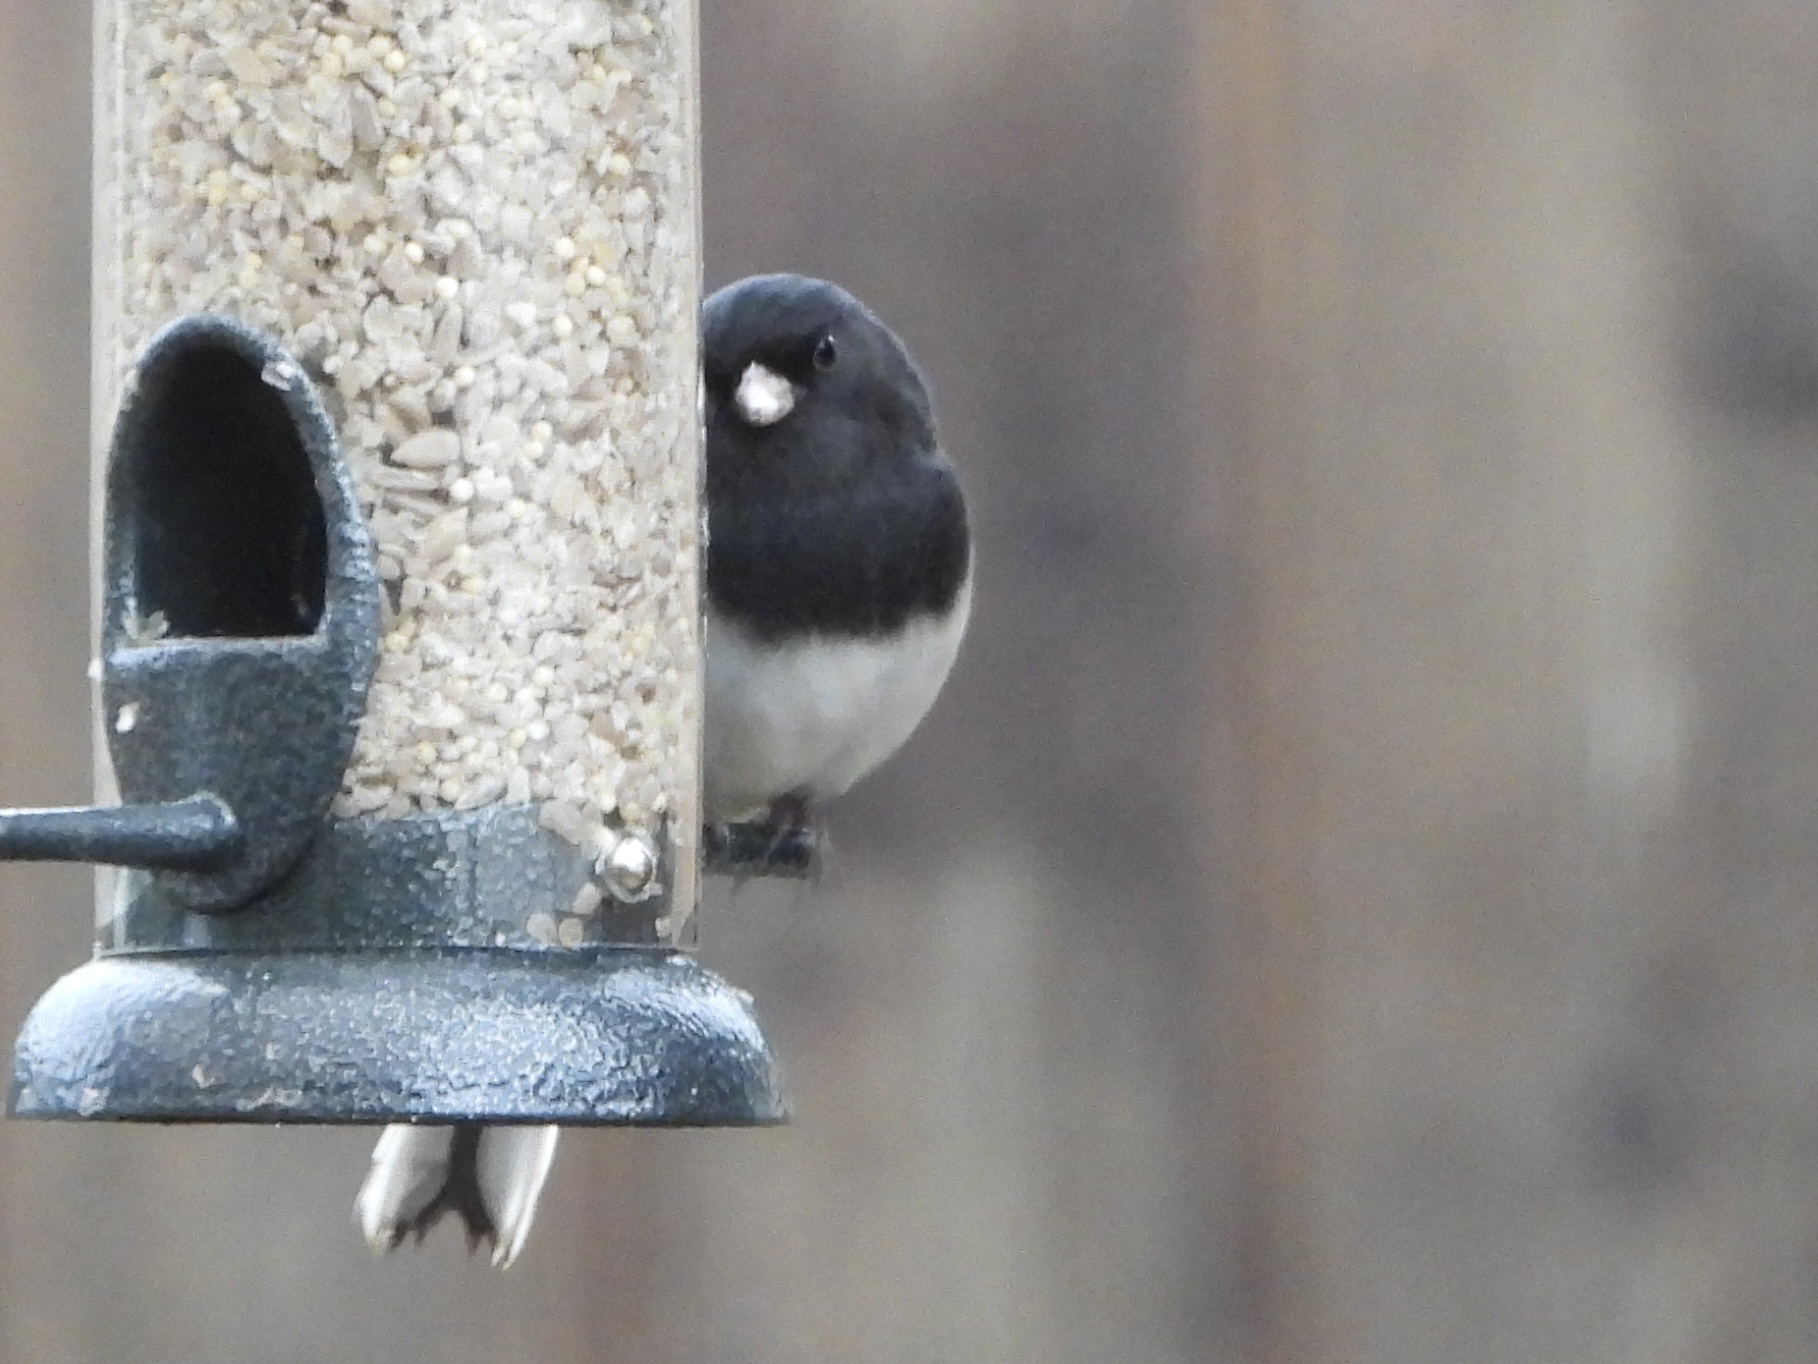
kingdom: Animalia
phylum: Chordata
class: Aves
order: Passeriformes
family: Passerellidae
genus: Junco
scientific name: Junco hyemalis
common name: Dark-eyed junco
